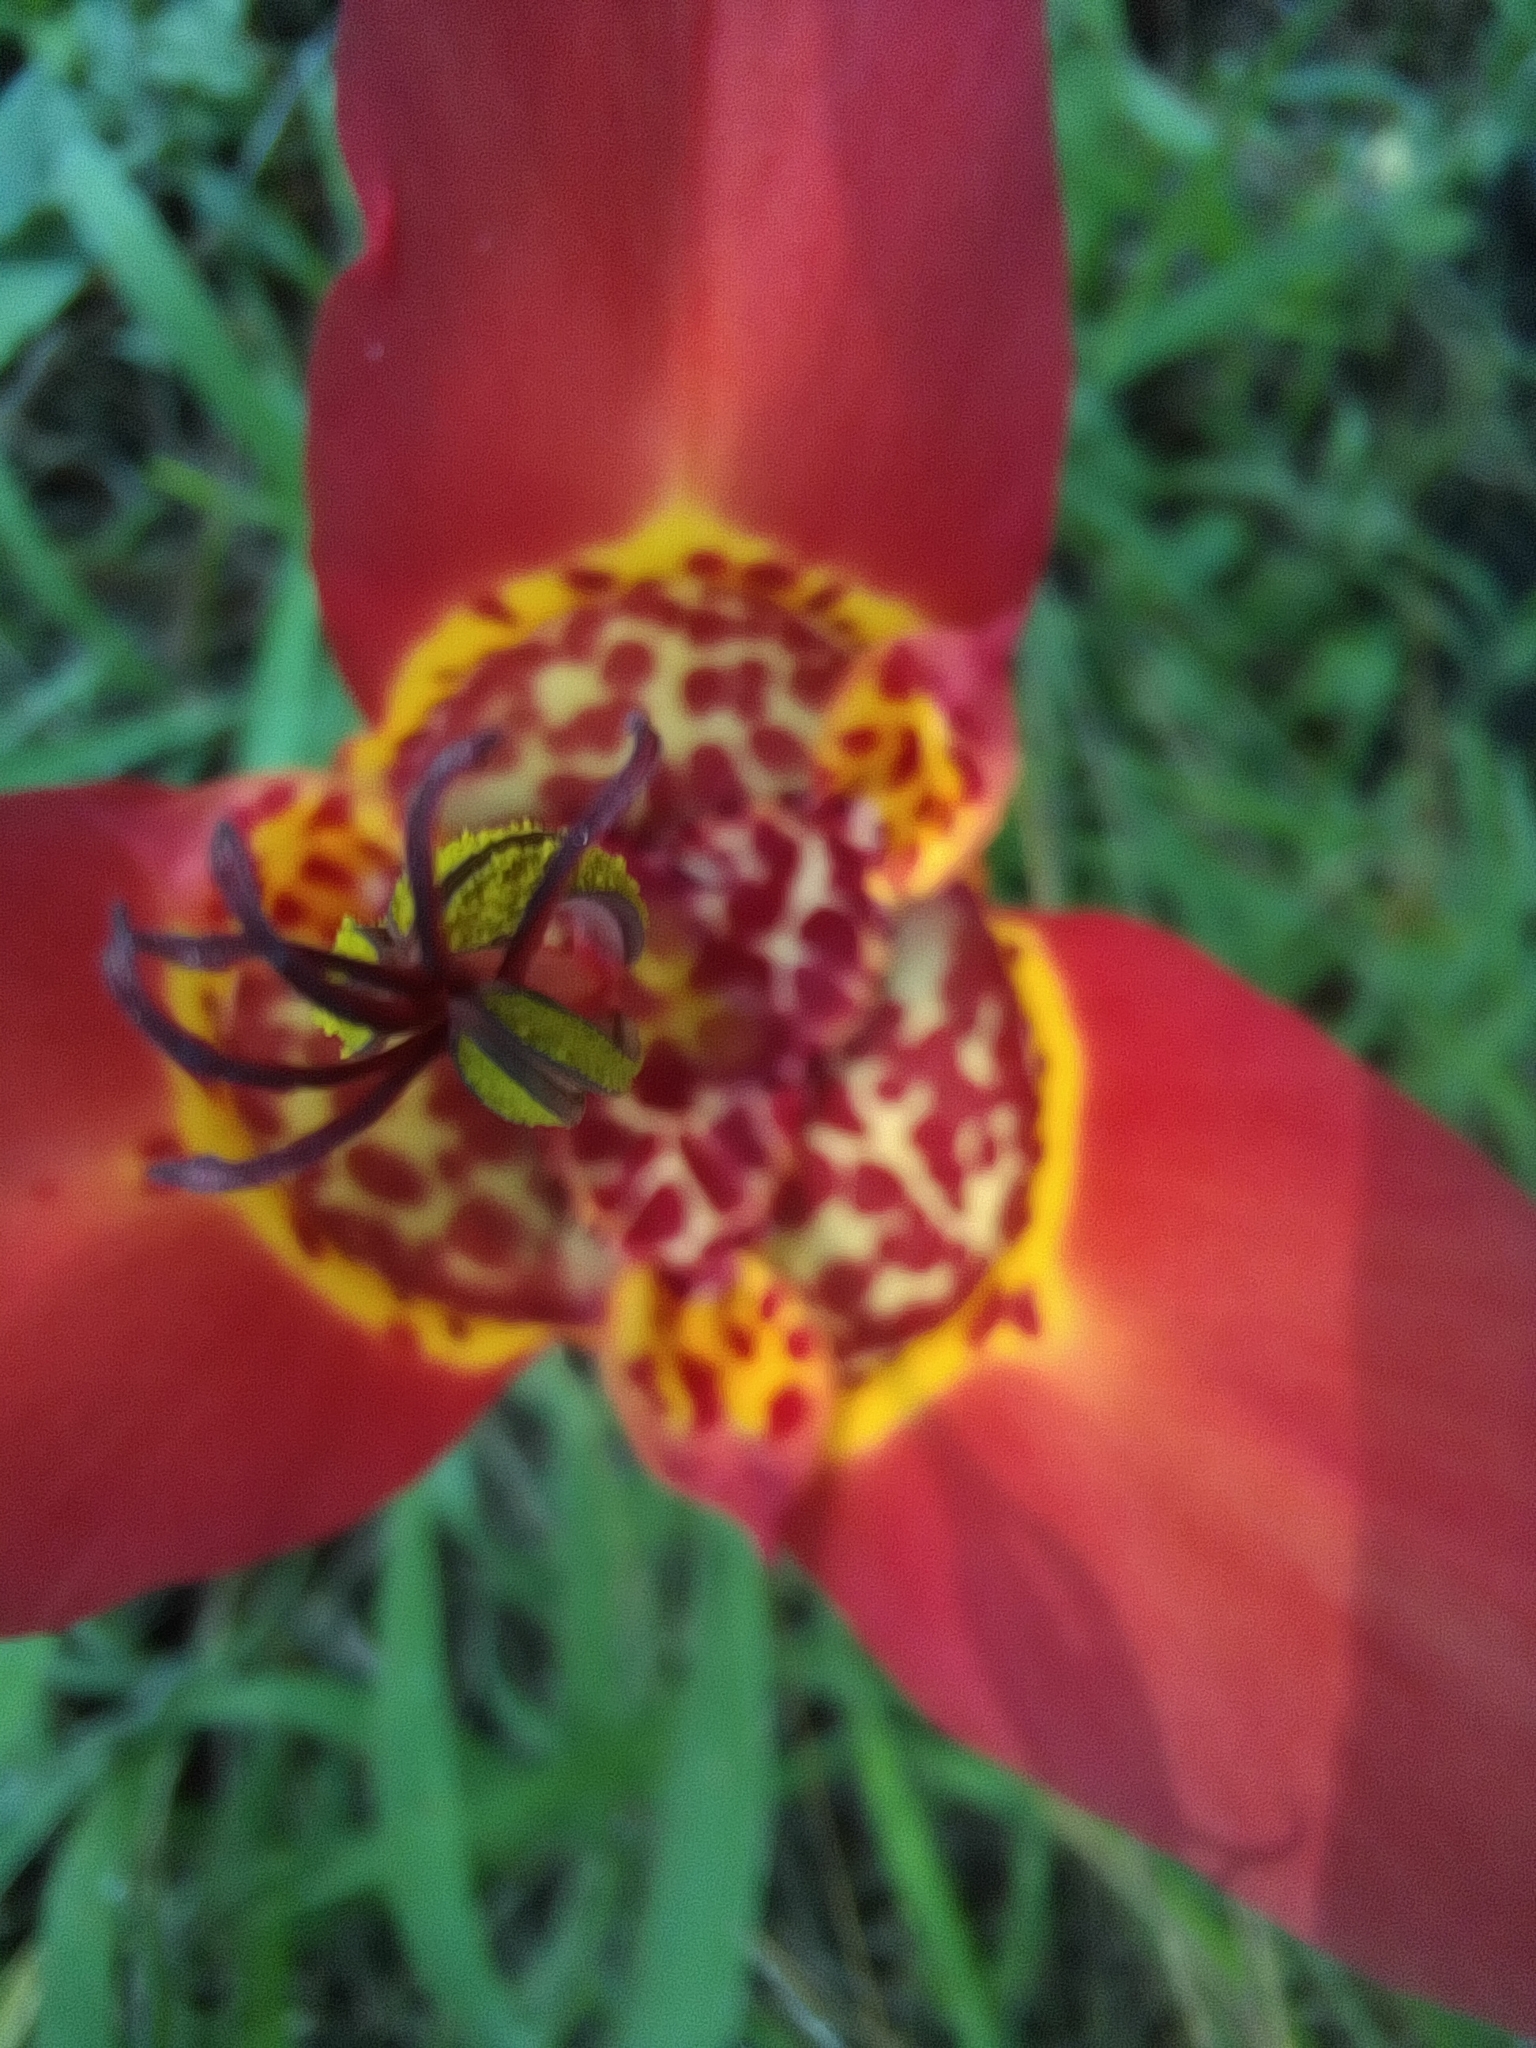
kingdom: Plantae
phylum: Tracheophyta
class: Liliopsida
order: Asparagales
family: Iridaceae
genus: Tigridia
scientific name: Tigridia pavonia
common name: Peacock-flower
